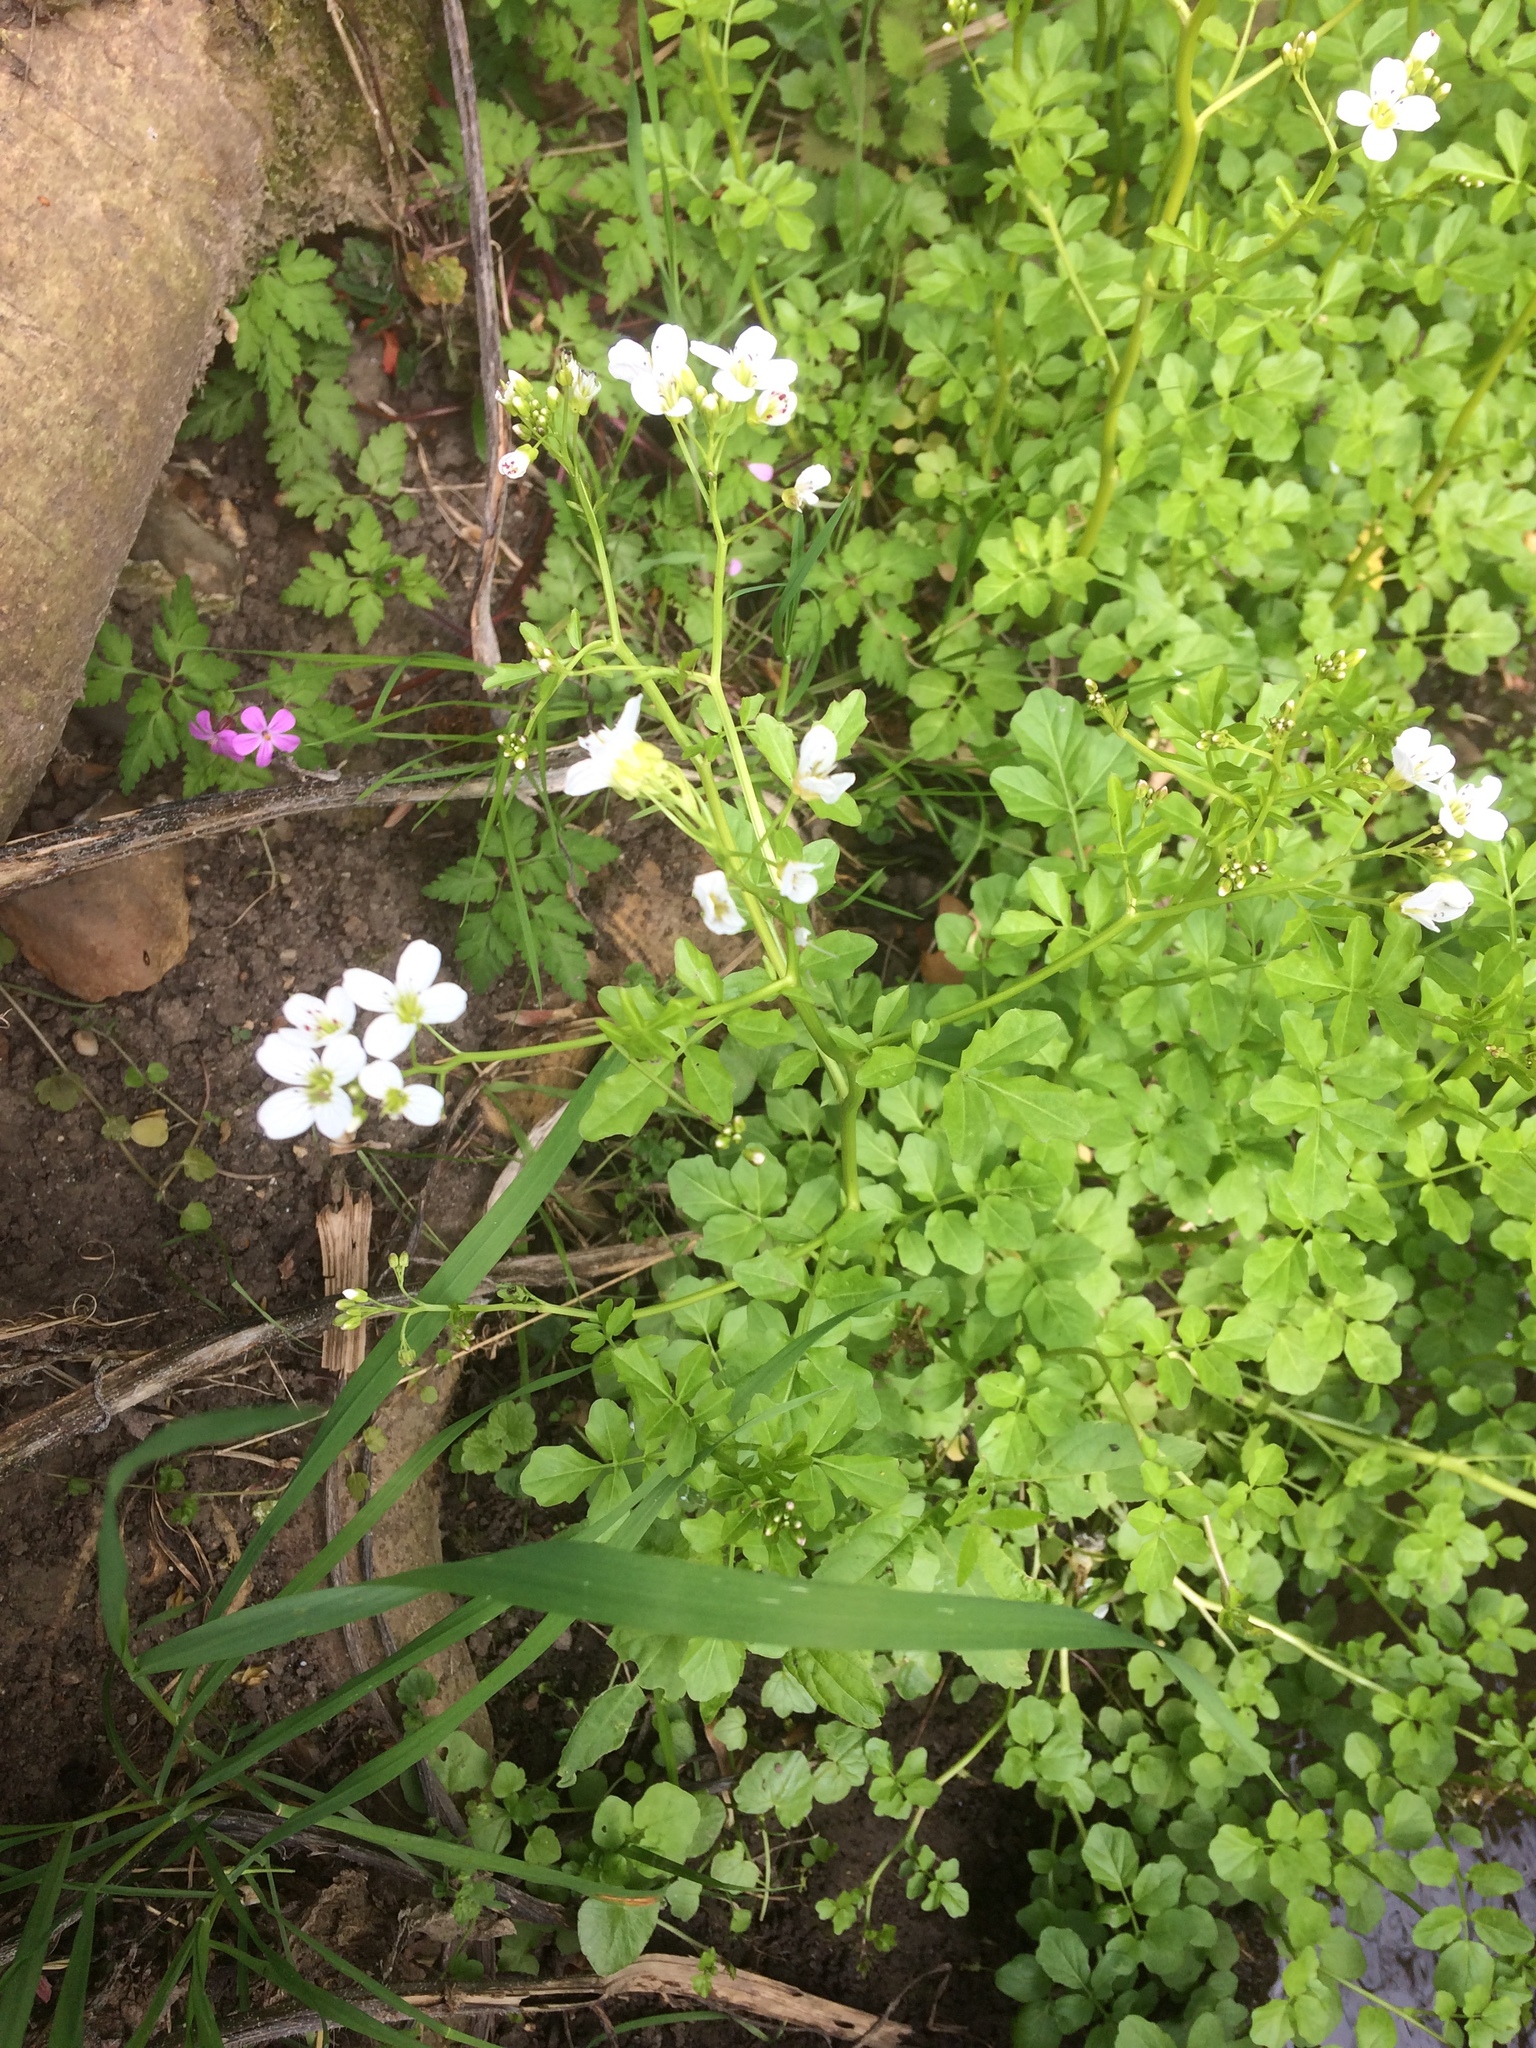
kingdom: Plantae
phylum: Tracheophyta
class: Magnoliopsida
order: Brassicales
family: Brassicaceae
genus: Cardamine
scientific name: Cardamine amara
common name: Large bitter-cress
